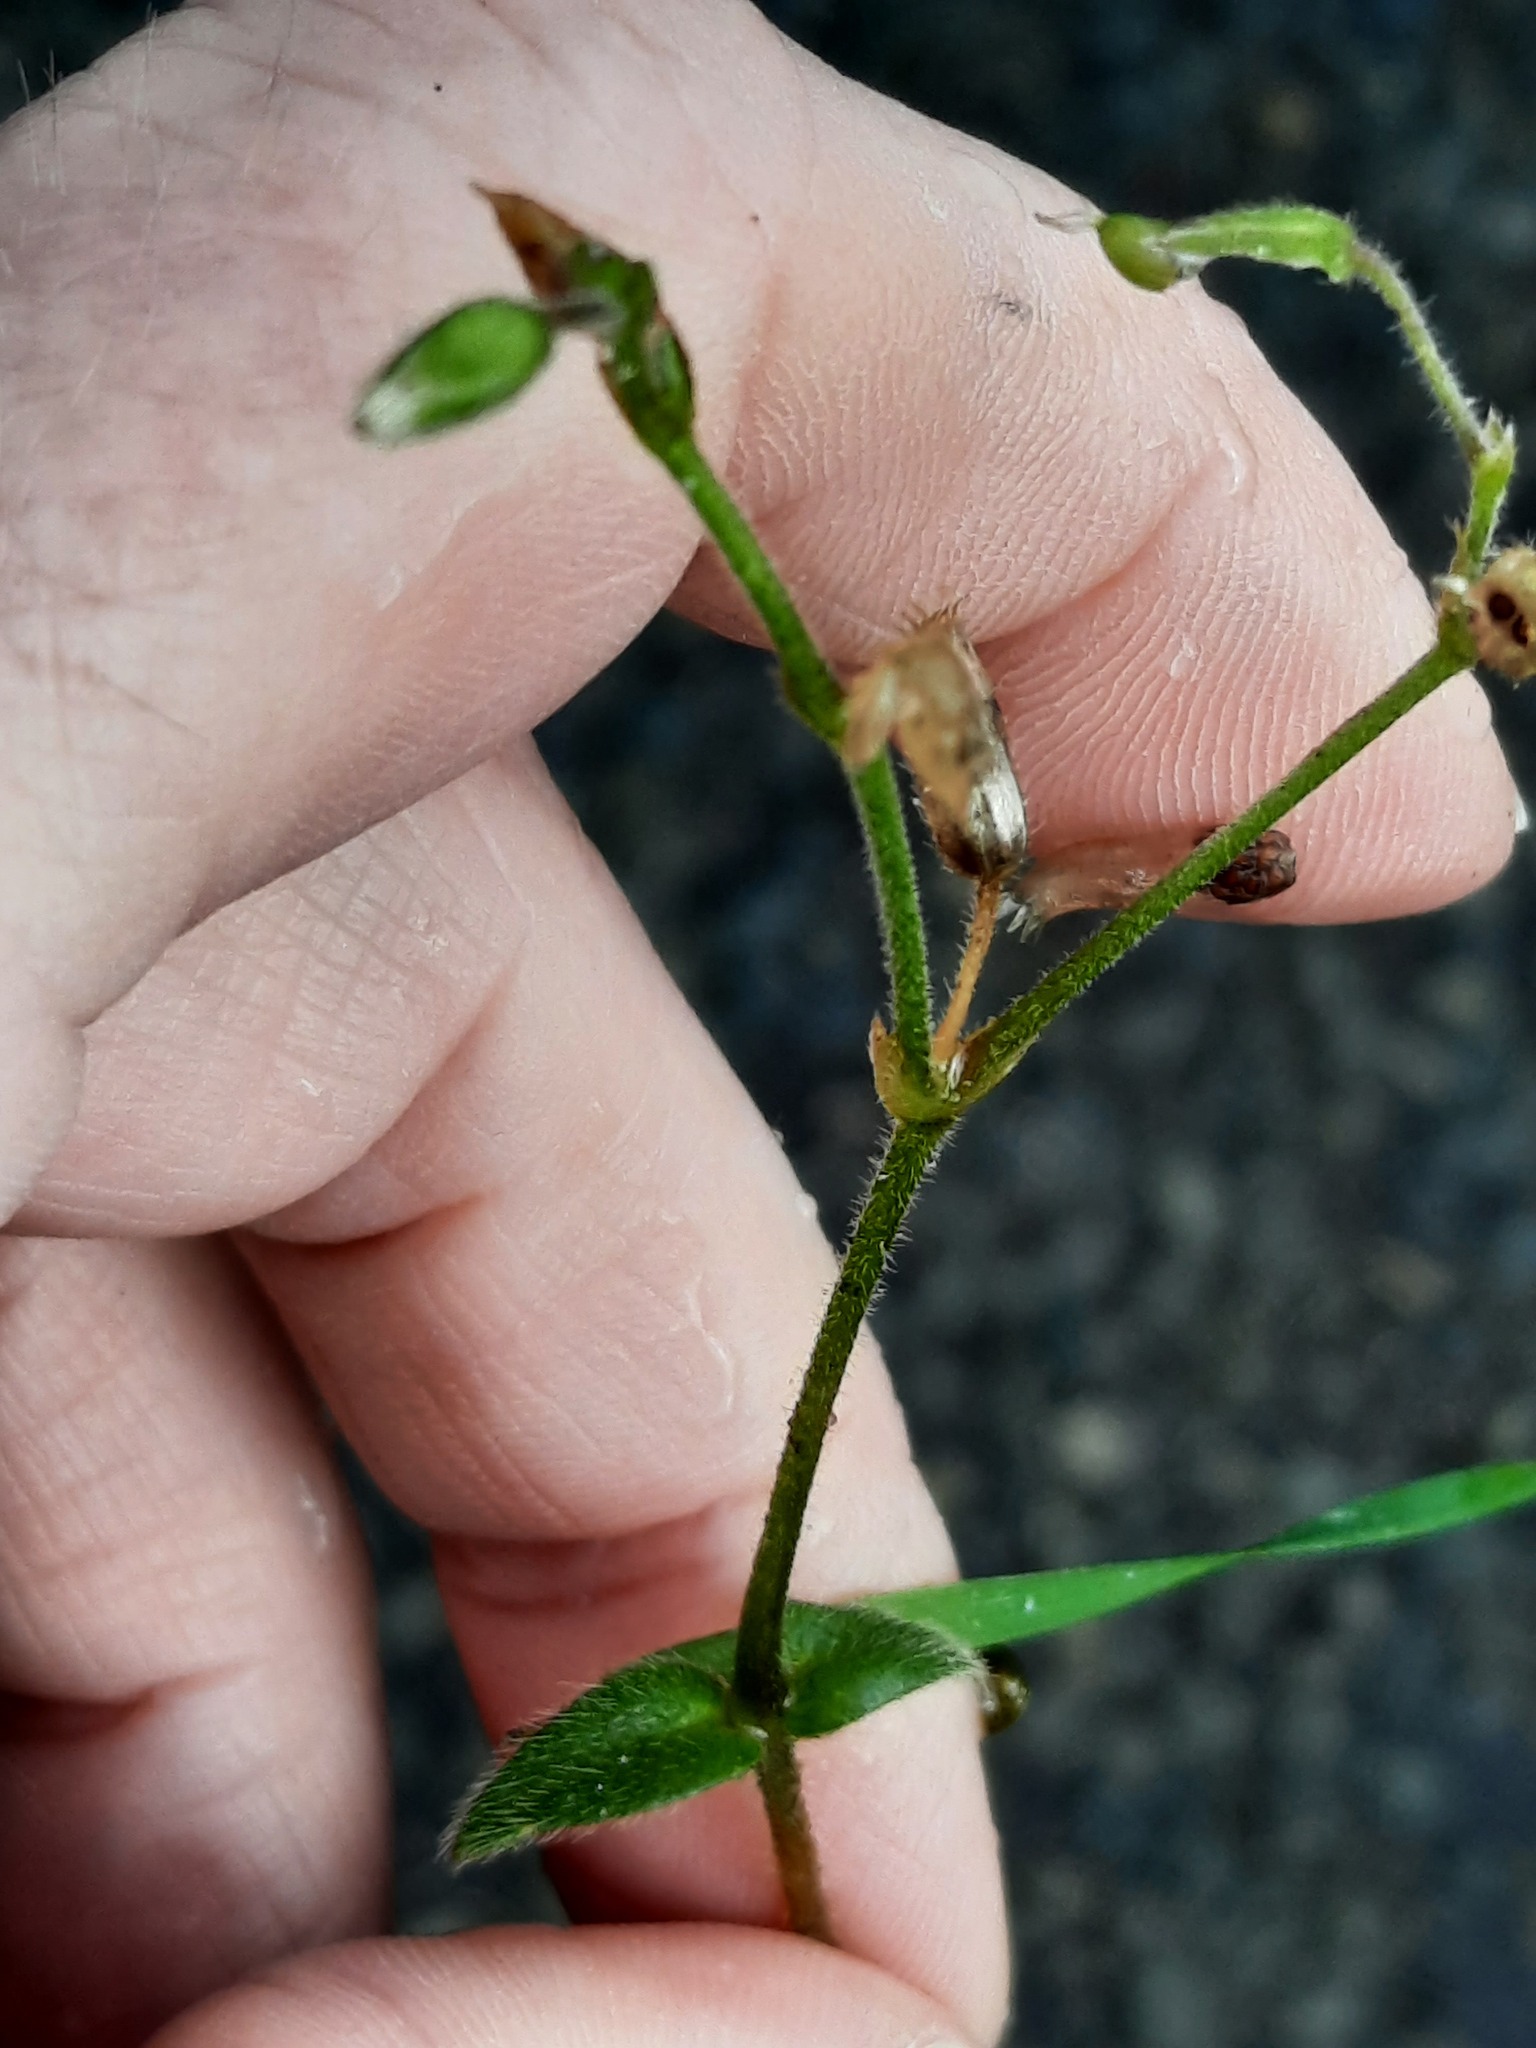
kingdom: Plantae
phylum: Tracheophyta
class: Magnoliopsida
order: Caryophyllales
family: Caryophyllaceae
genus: Cerastium
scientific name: Cerastium fontanum
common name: Common mouse-ear
